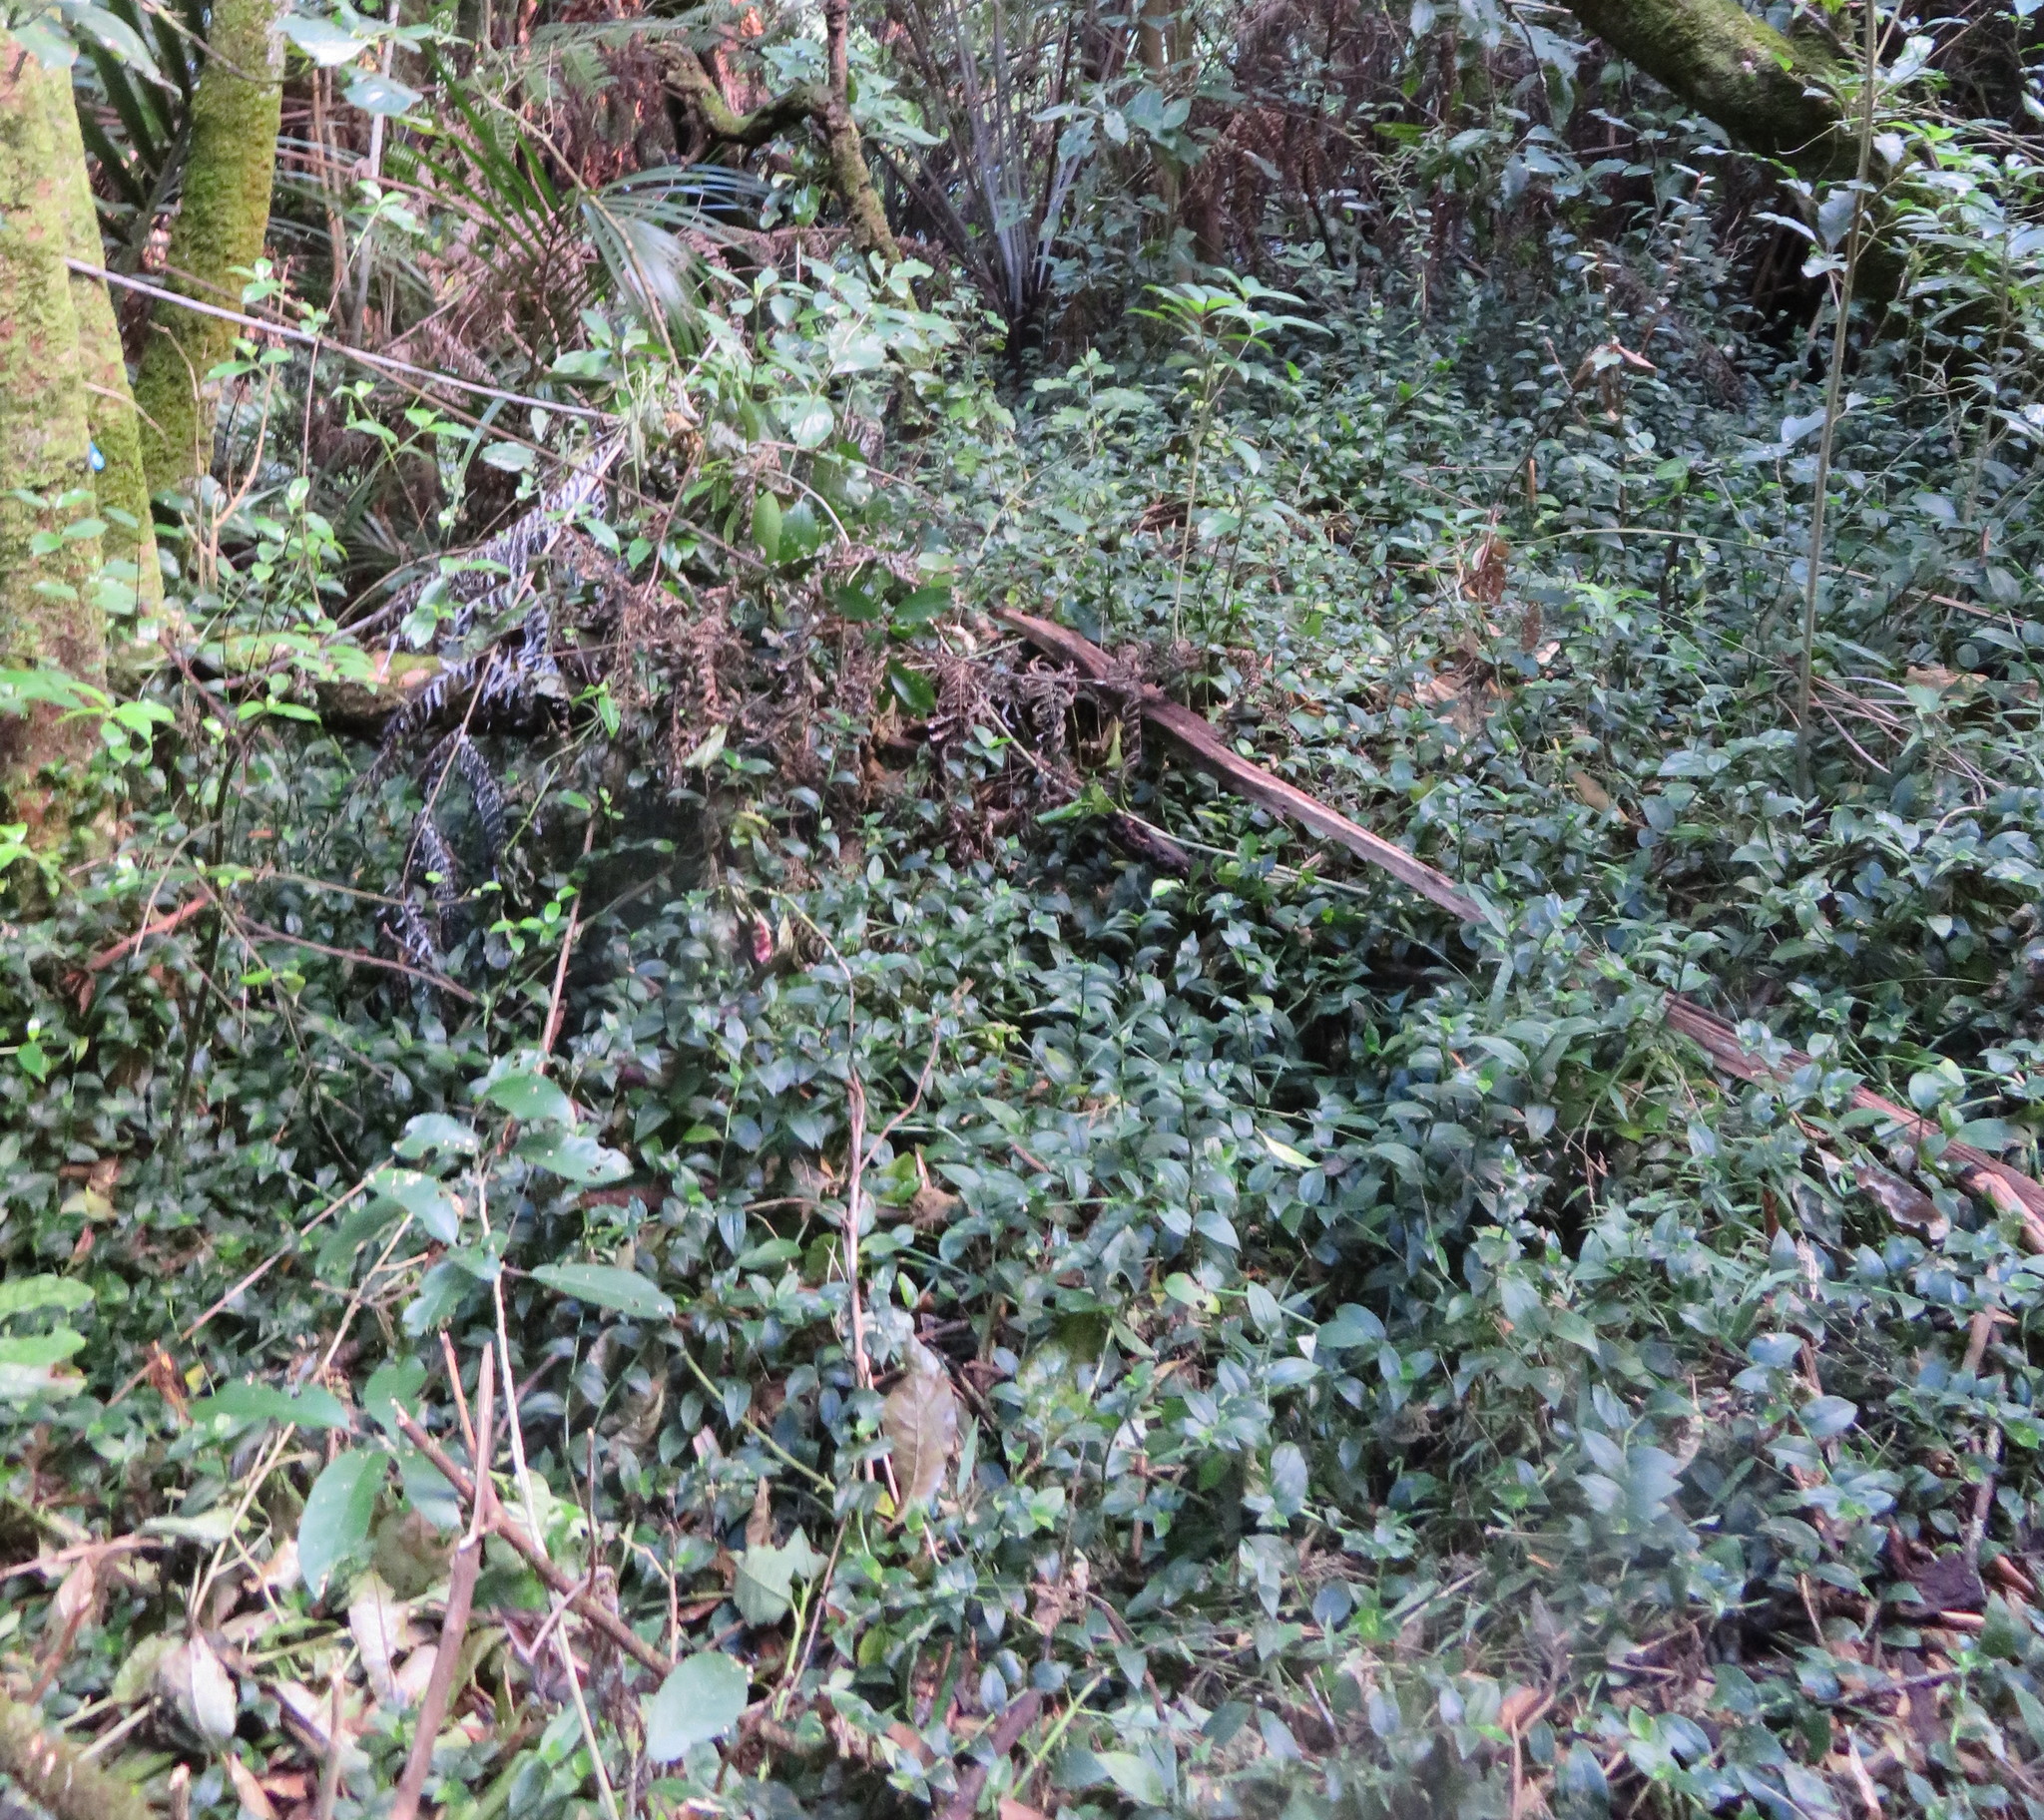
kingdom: Plantae
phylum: Tracheophyta
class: Liliopsida
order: Commelinales
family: Commelinaceae
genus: Tradescantia
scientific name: Tradescantia fluminensis
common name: Wandering-jew
